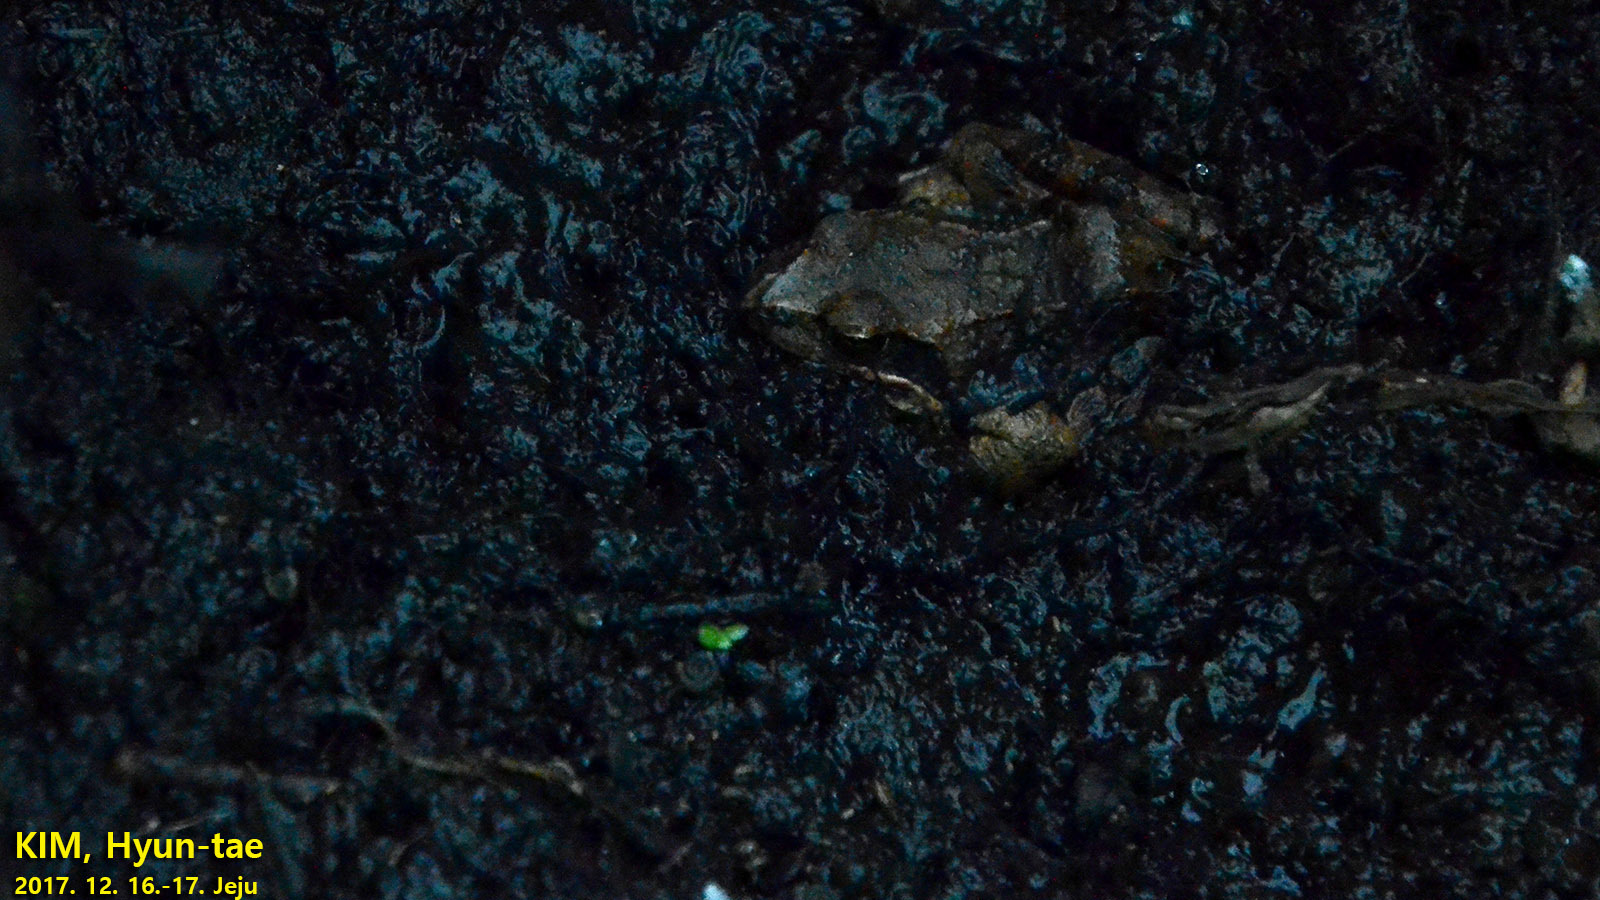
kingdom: Animalia
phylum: Chordata
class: Amphibia
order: Anura
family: Ranidae
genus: Rana
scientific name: Rana uenoi
